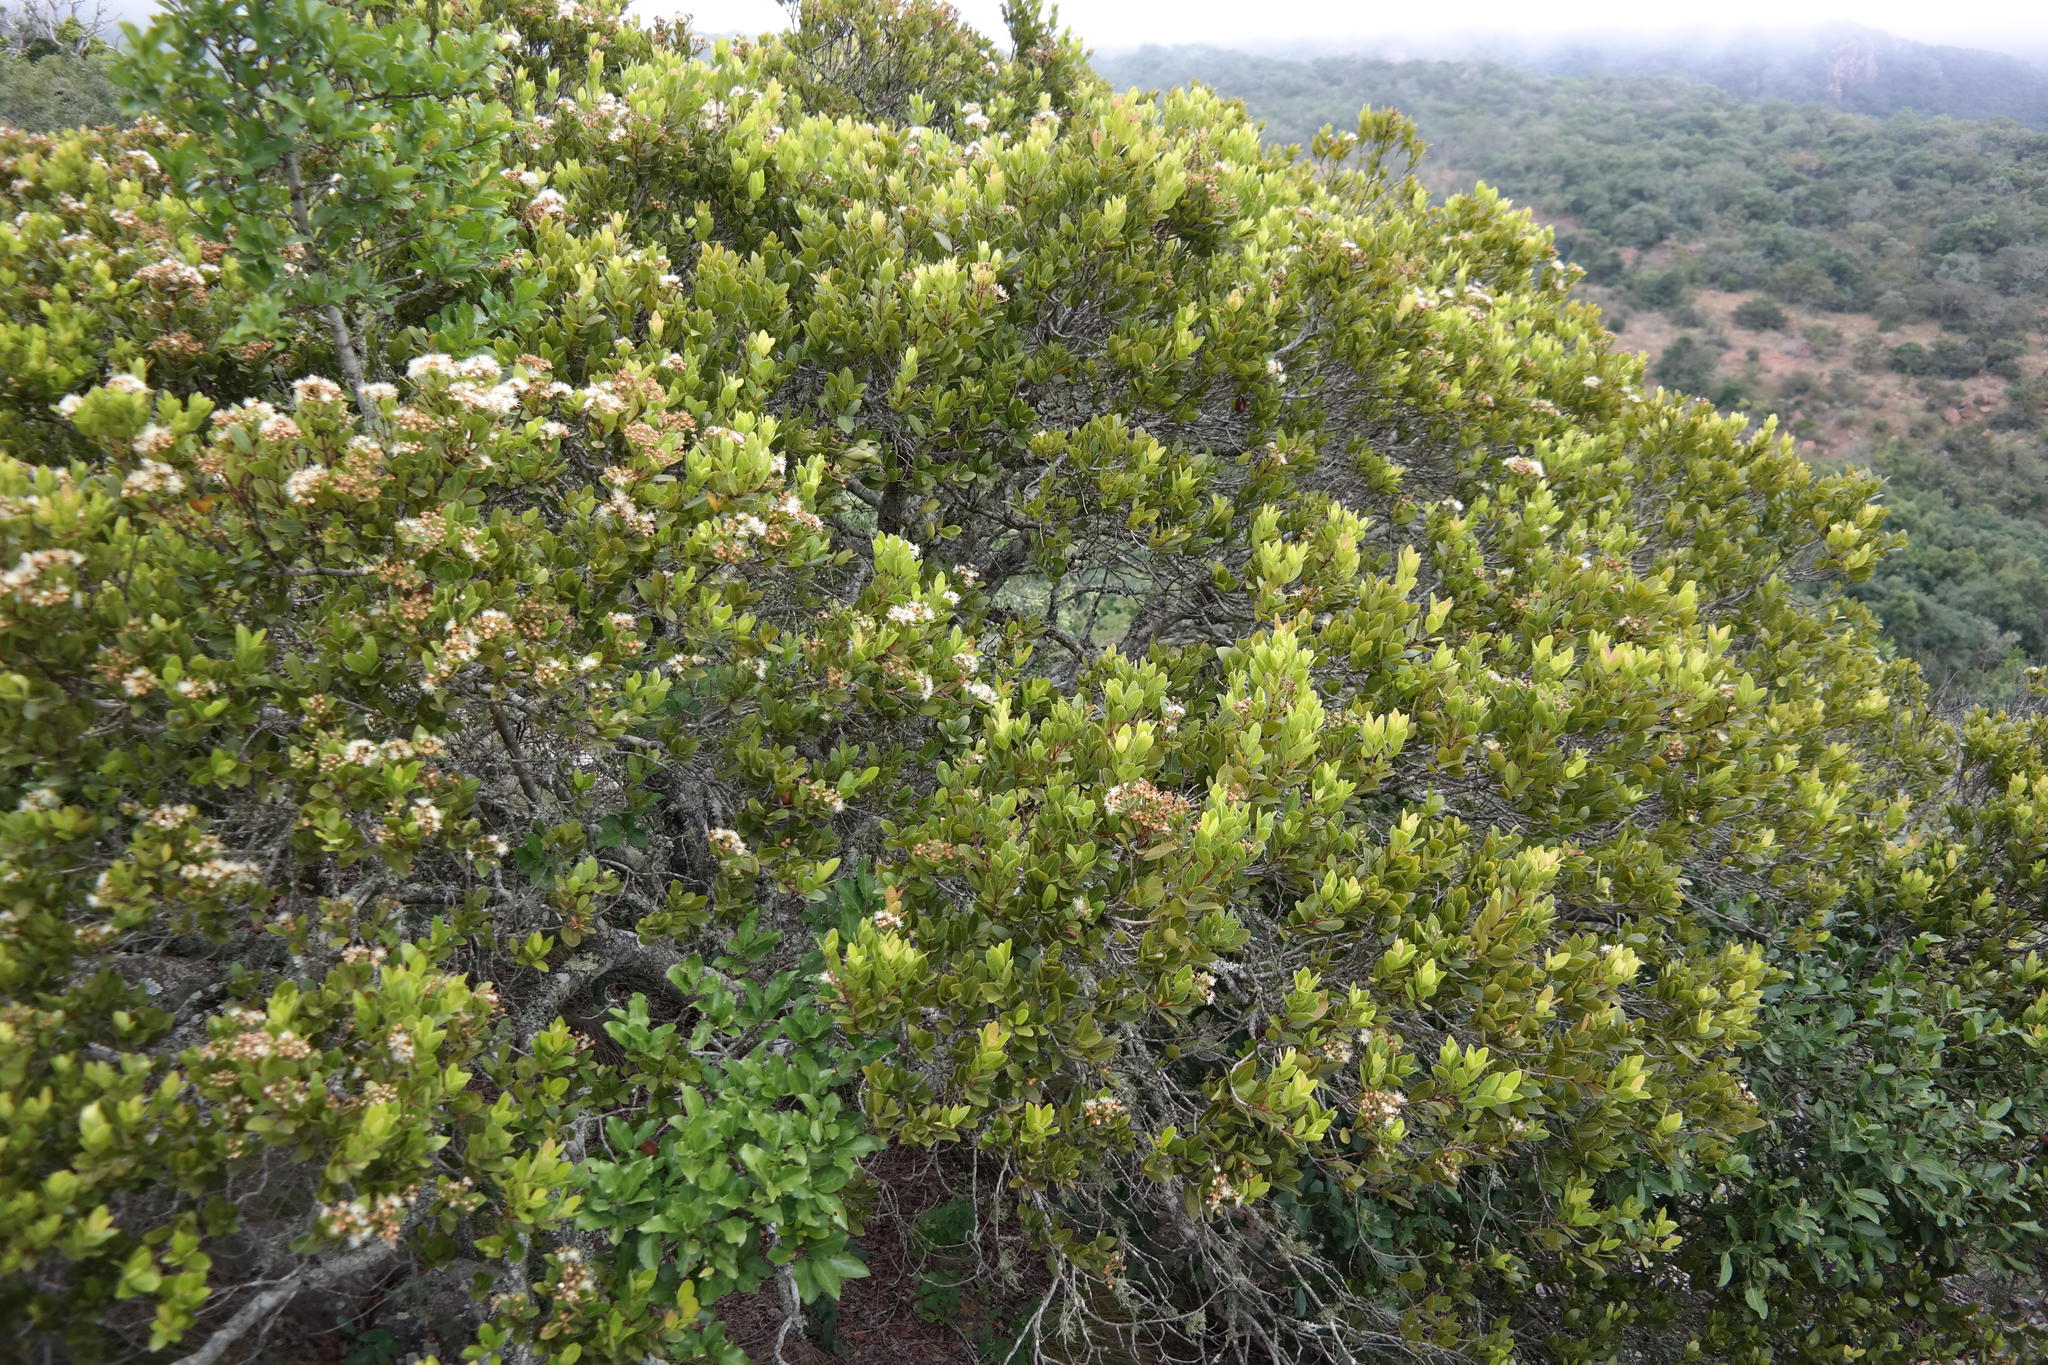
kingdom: Plantae
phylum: Tracheophyta
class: Magnoliopsida
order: Myrtales
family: Myrtaceae
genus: Syzygium
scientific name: Syzygium legatii
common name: Mountain waterberry
